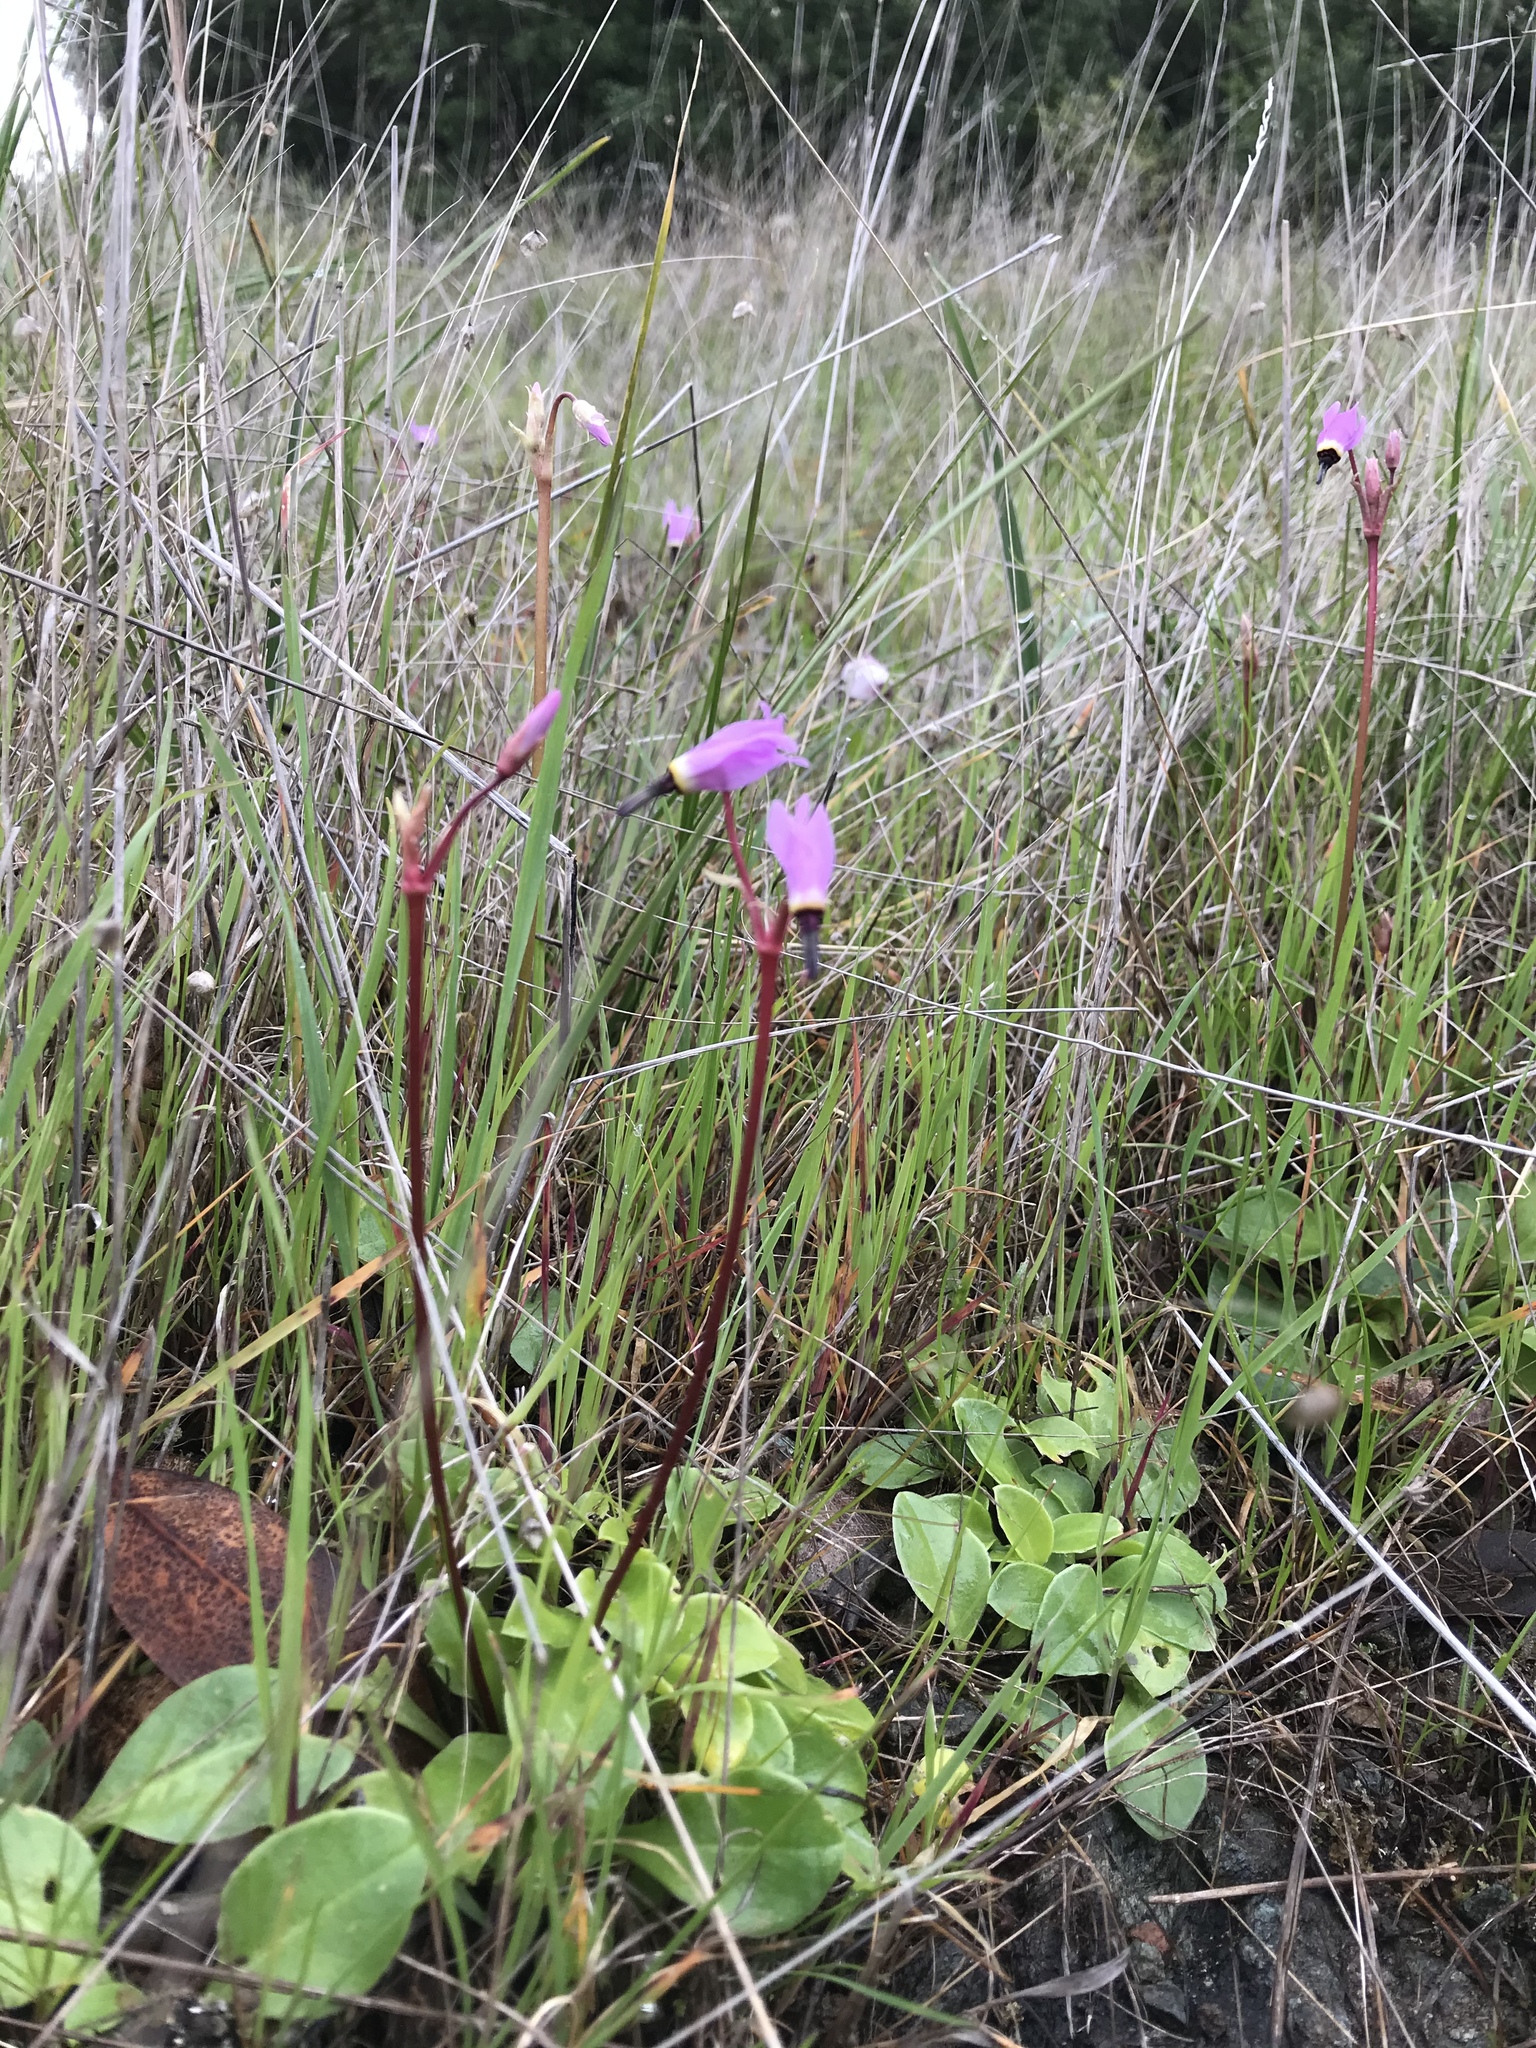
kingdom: Plantae
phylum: Tracheophyta
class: Magnoliopsida
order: Ericales
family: Primulaceae
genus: Dodecatheon
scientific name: Dodecatheon hendersonii
